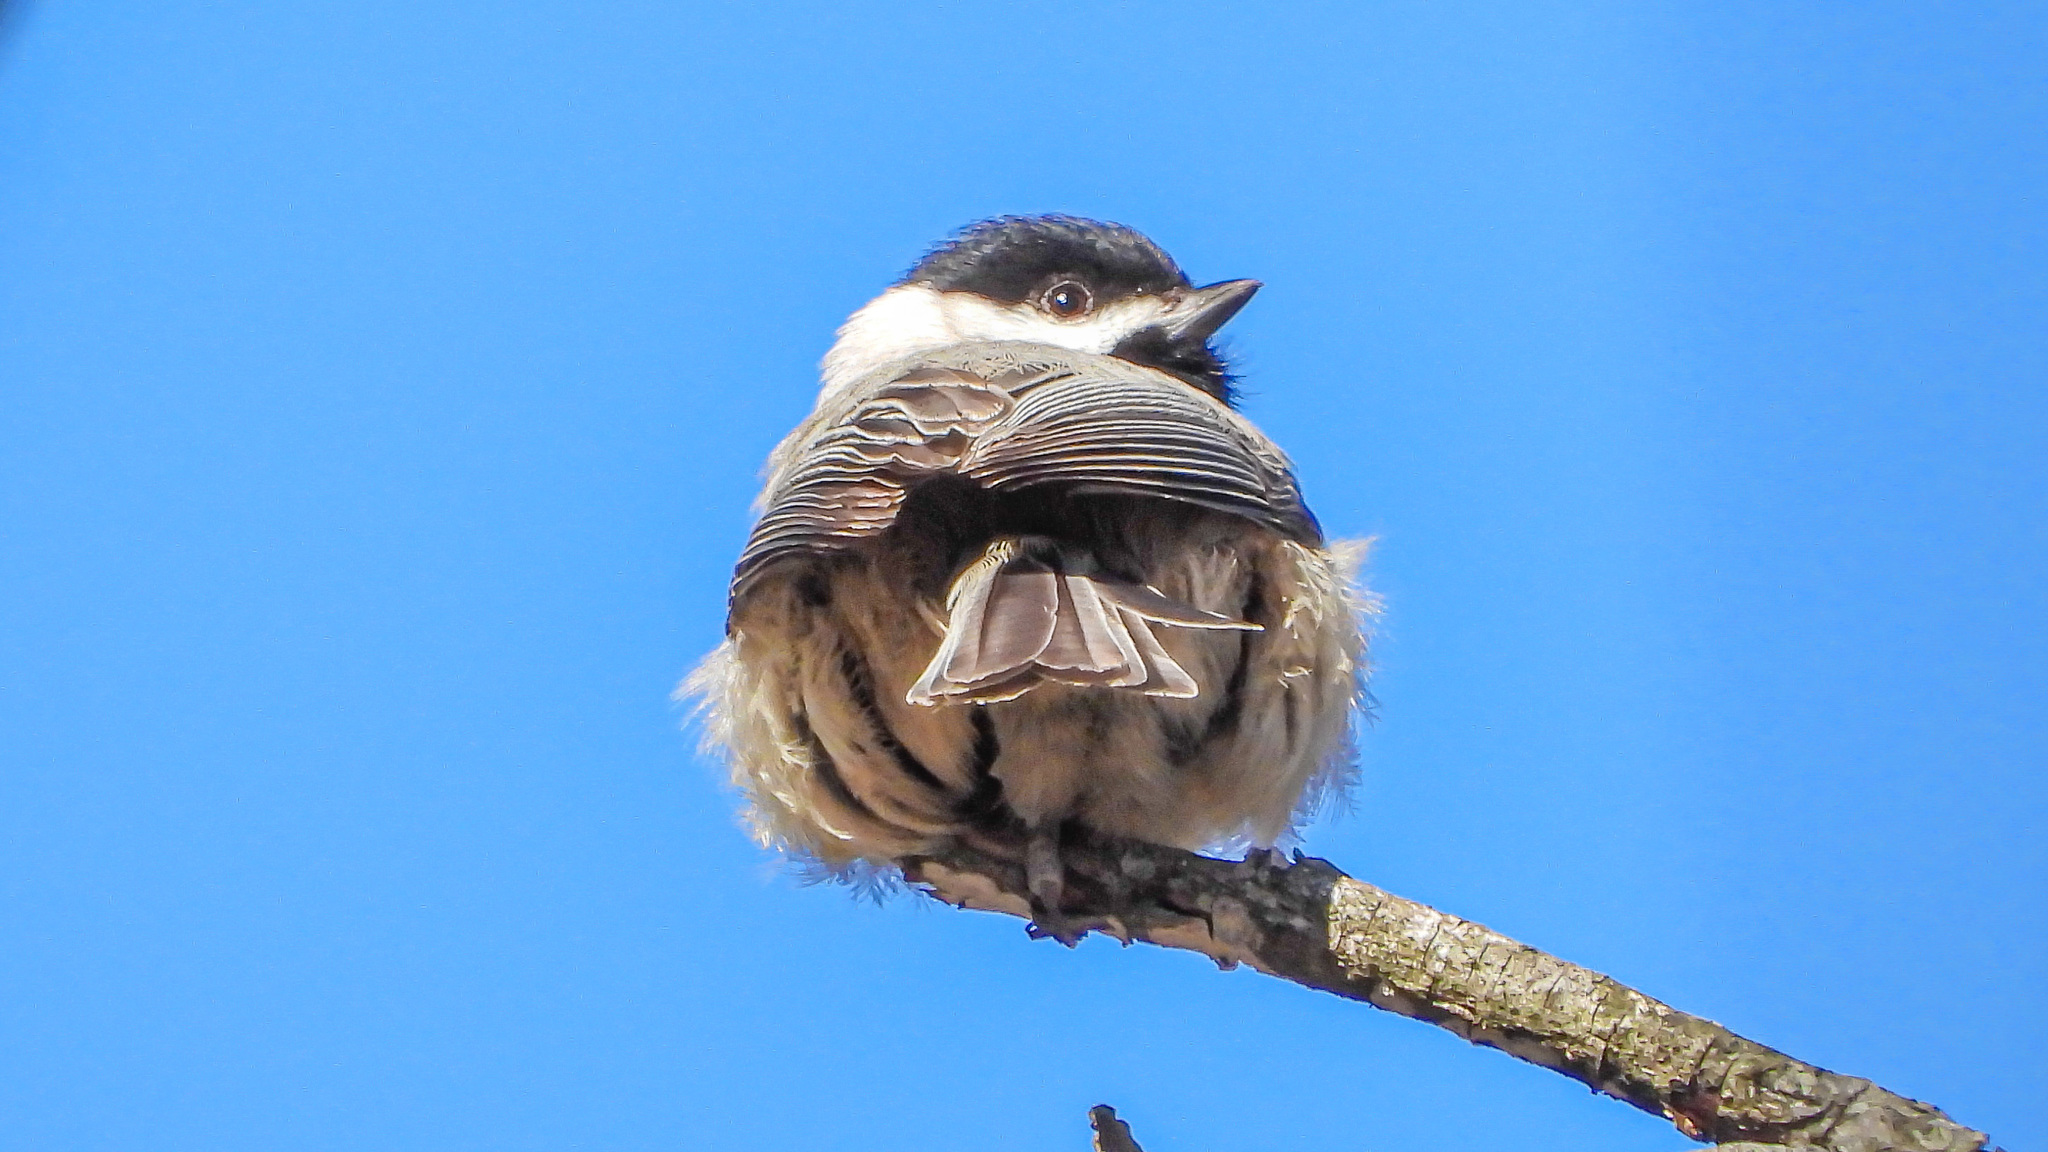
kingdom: Animalia
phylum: Chordata
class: Aves
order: Passeriformes
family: Paridae
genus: Poecile
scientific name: Poecile carolinensis
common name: Carolina chickadee
